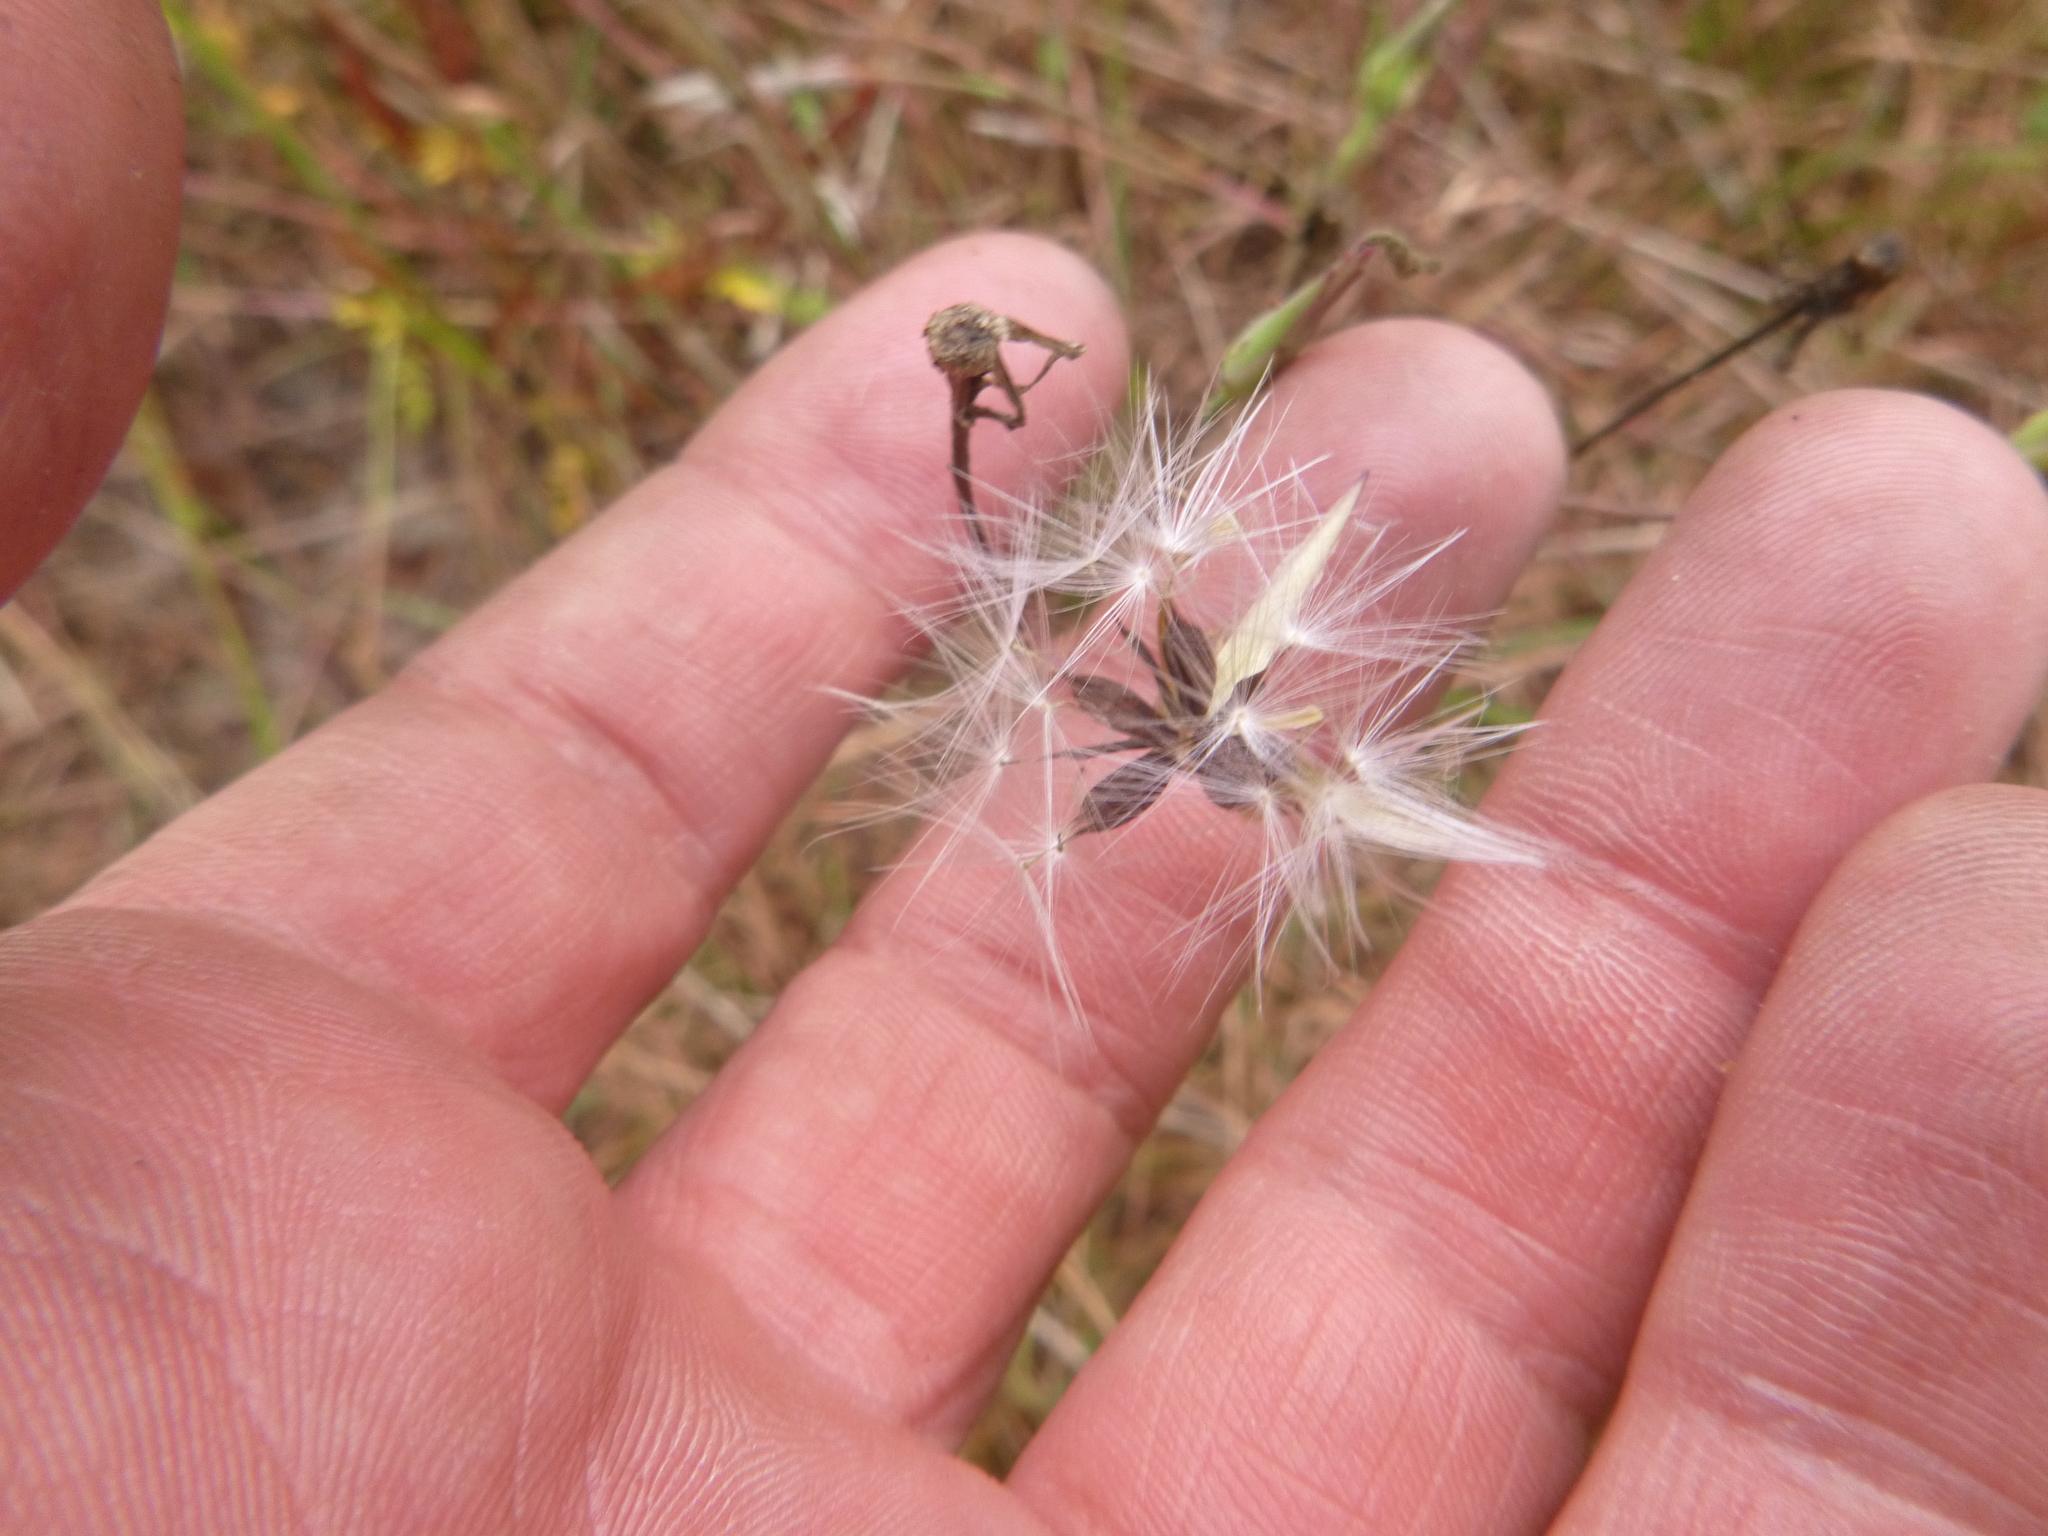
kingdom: Plantae
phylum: Tracheophyta
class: Magnoliopsida
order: Asterales
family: Asteraceae
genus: Lactuca
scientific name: Lactuca graminifolia
